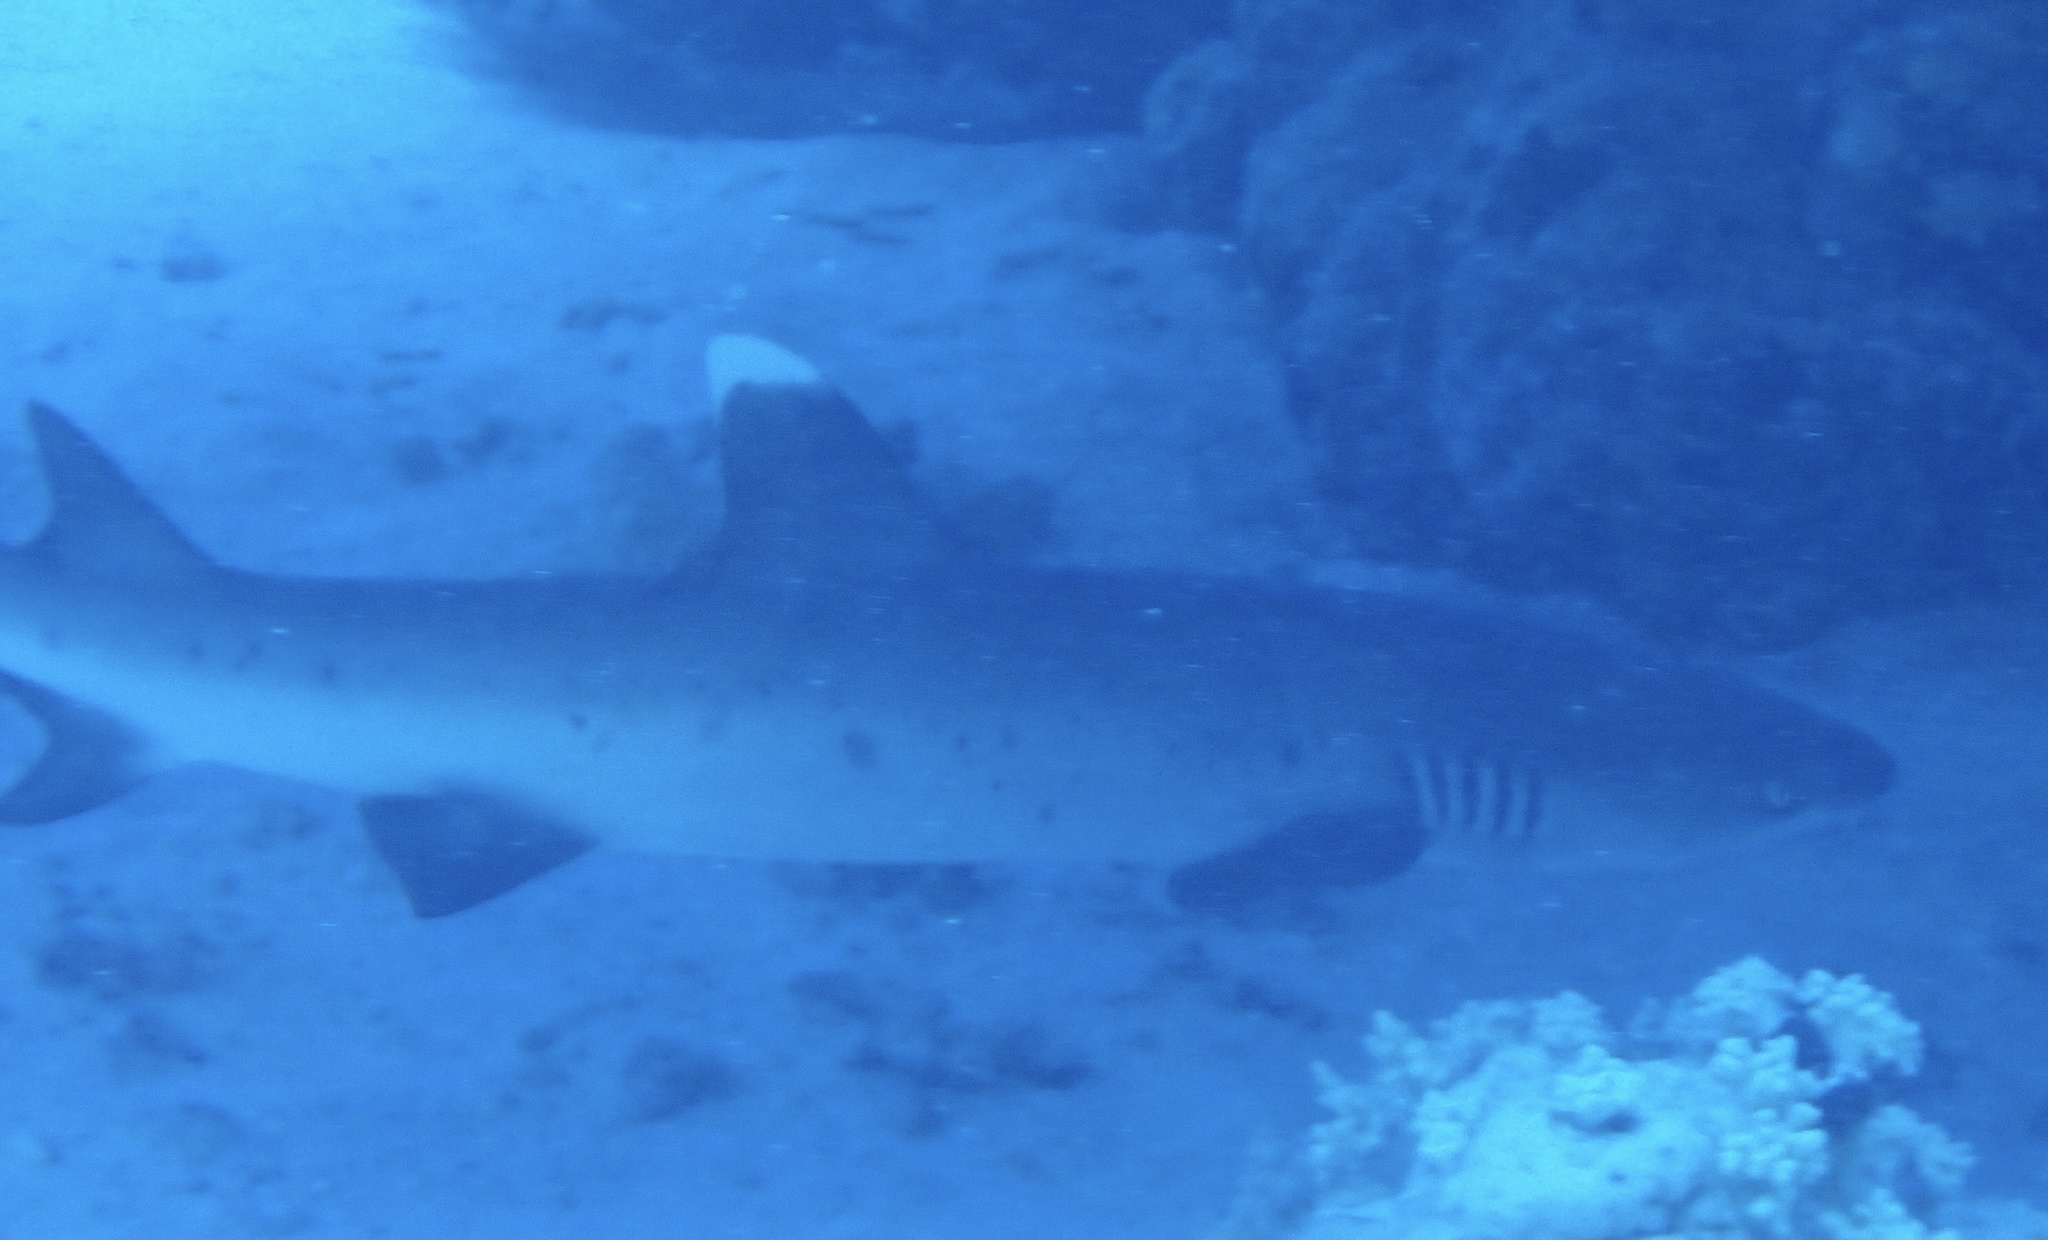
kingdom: Animalia
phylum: Chordata
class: Elasmobranchii
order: Carcharhiniformes
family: Carcharhinidae
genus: Triaenodon
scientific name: Triaenodon obesus
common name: Whitetip reef shark
